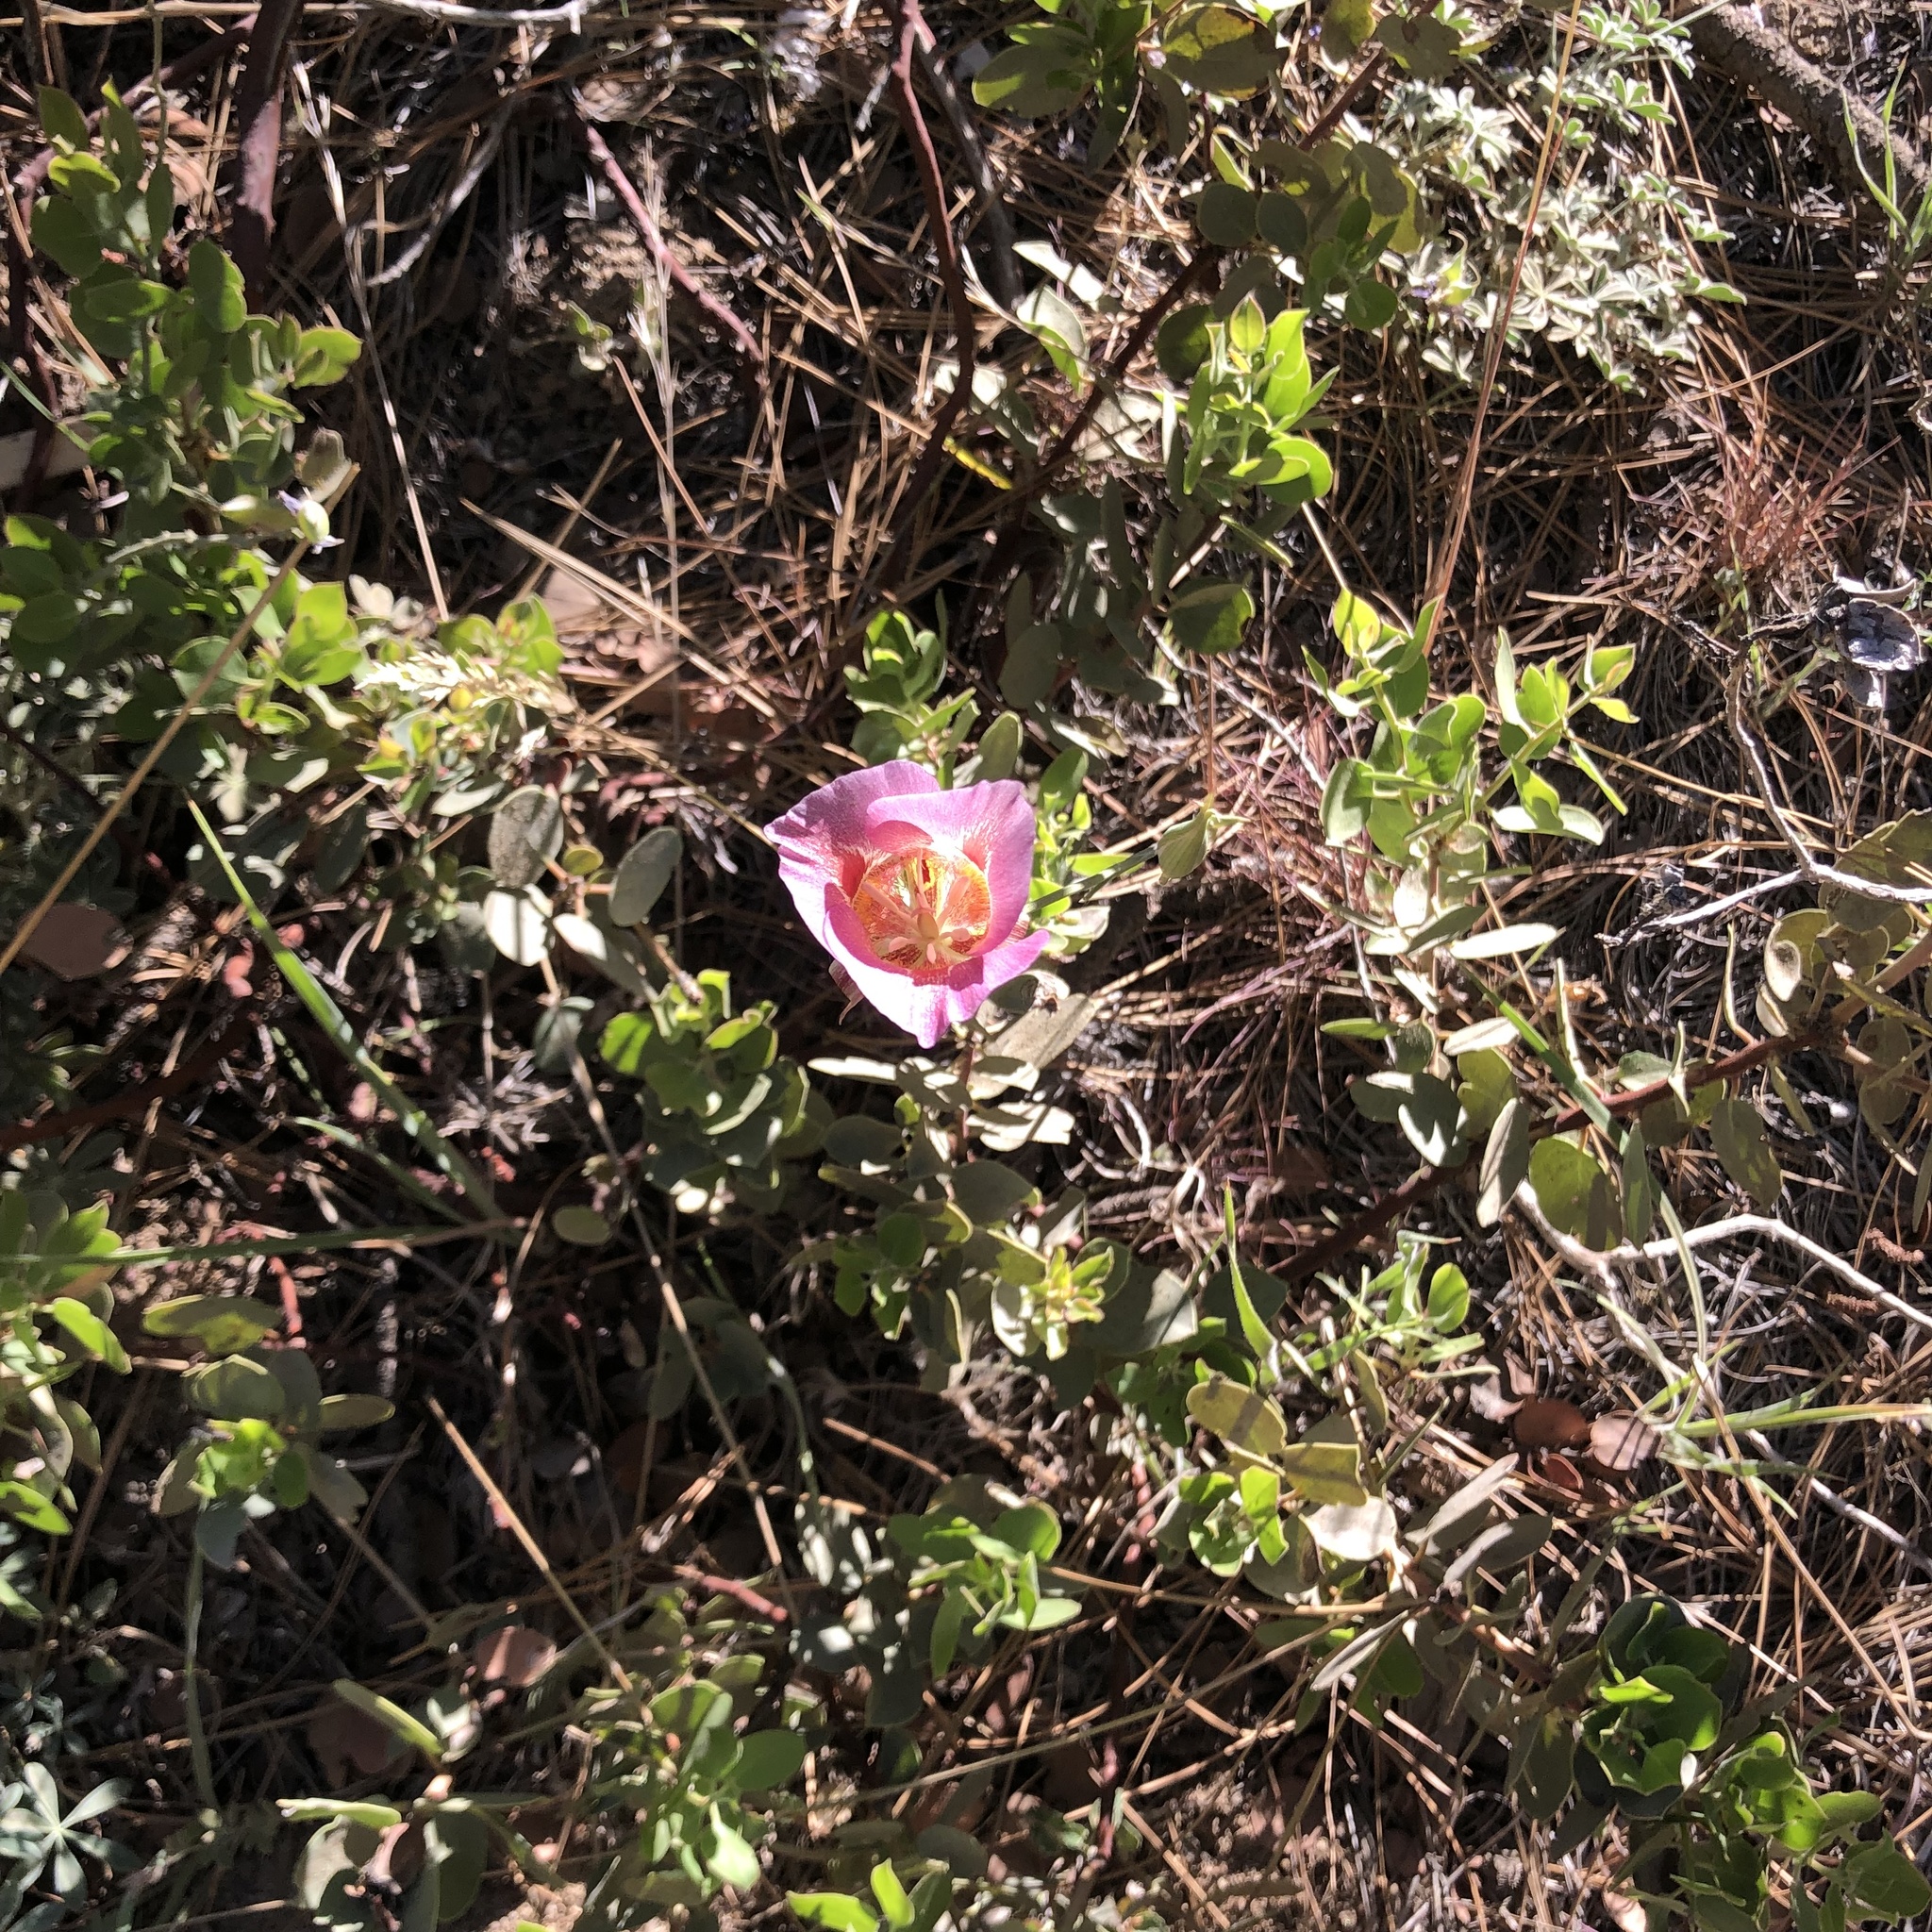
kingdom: Plantae
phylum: Tracheophyta
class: Liliopsida
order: Liliales
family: Liliaceae
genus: Calochortus
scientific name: Calochortus venustus
